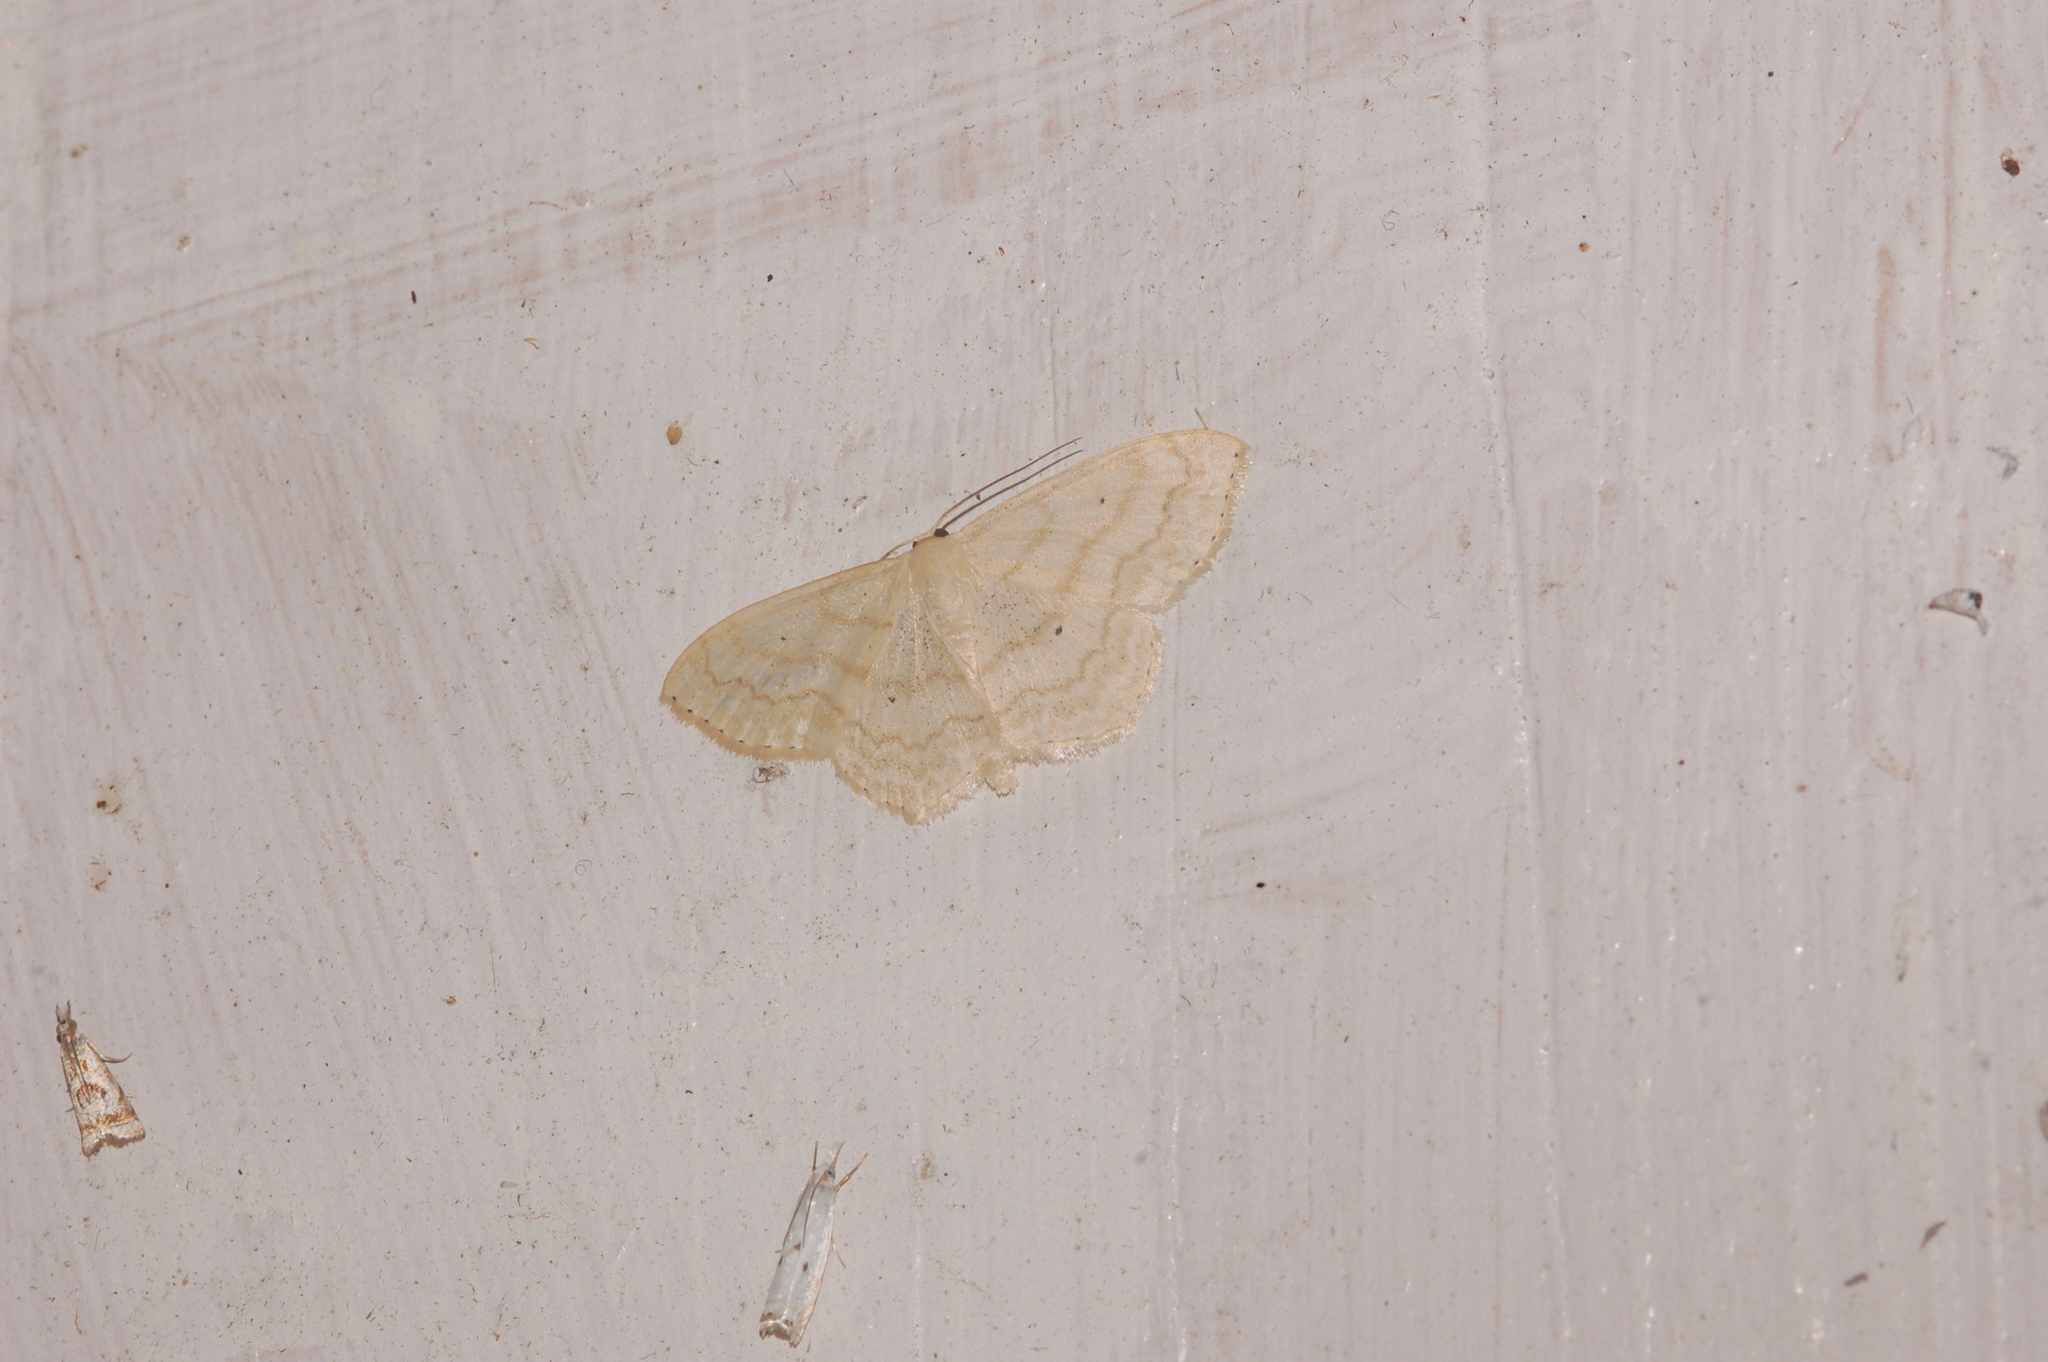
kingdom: Animalia
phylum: Arthropoda
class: Insecta
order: Lepidoptera
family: Geometridae
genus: Scopula
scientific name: Scopula limboundata
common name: Large lace border
